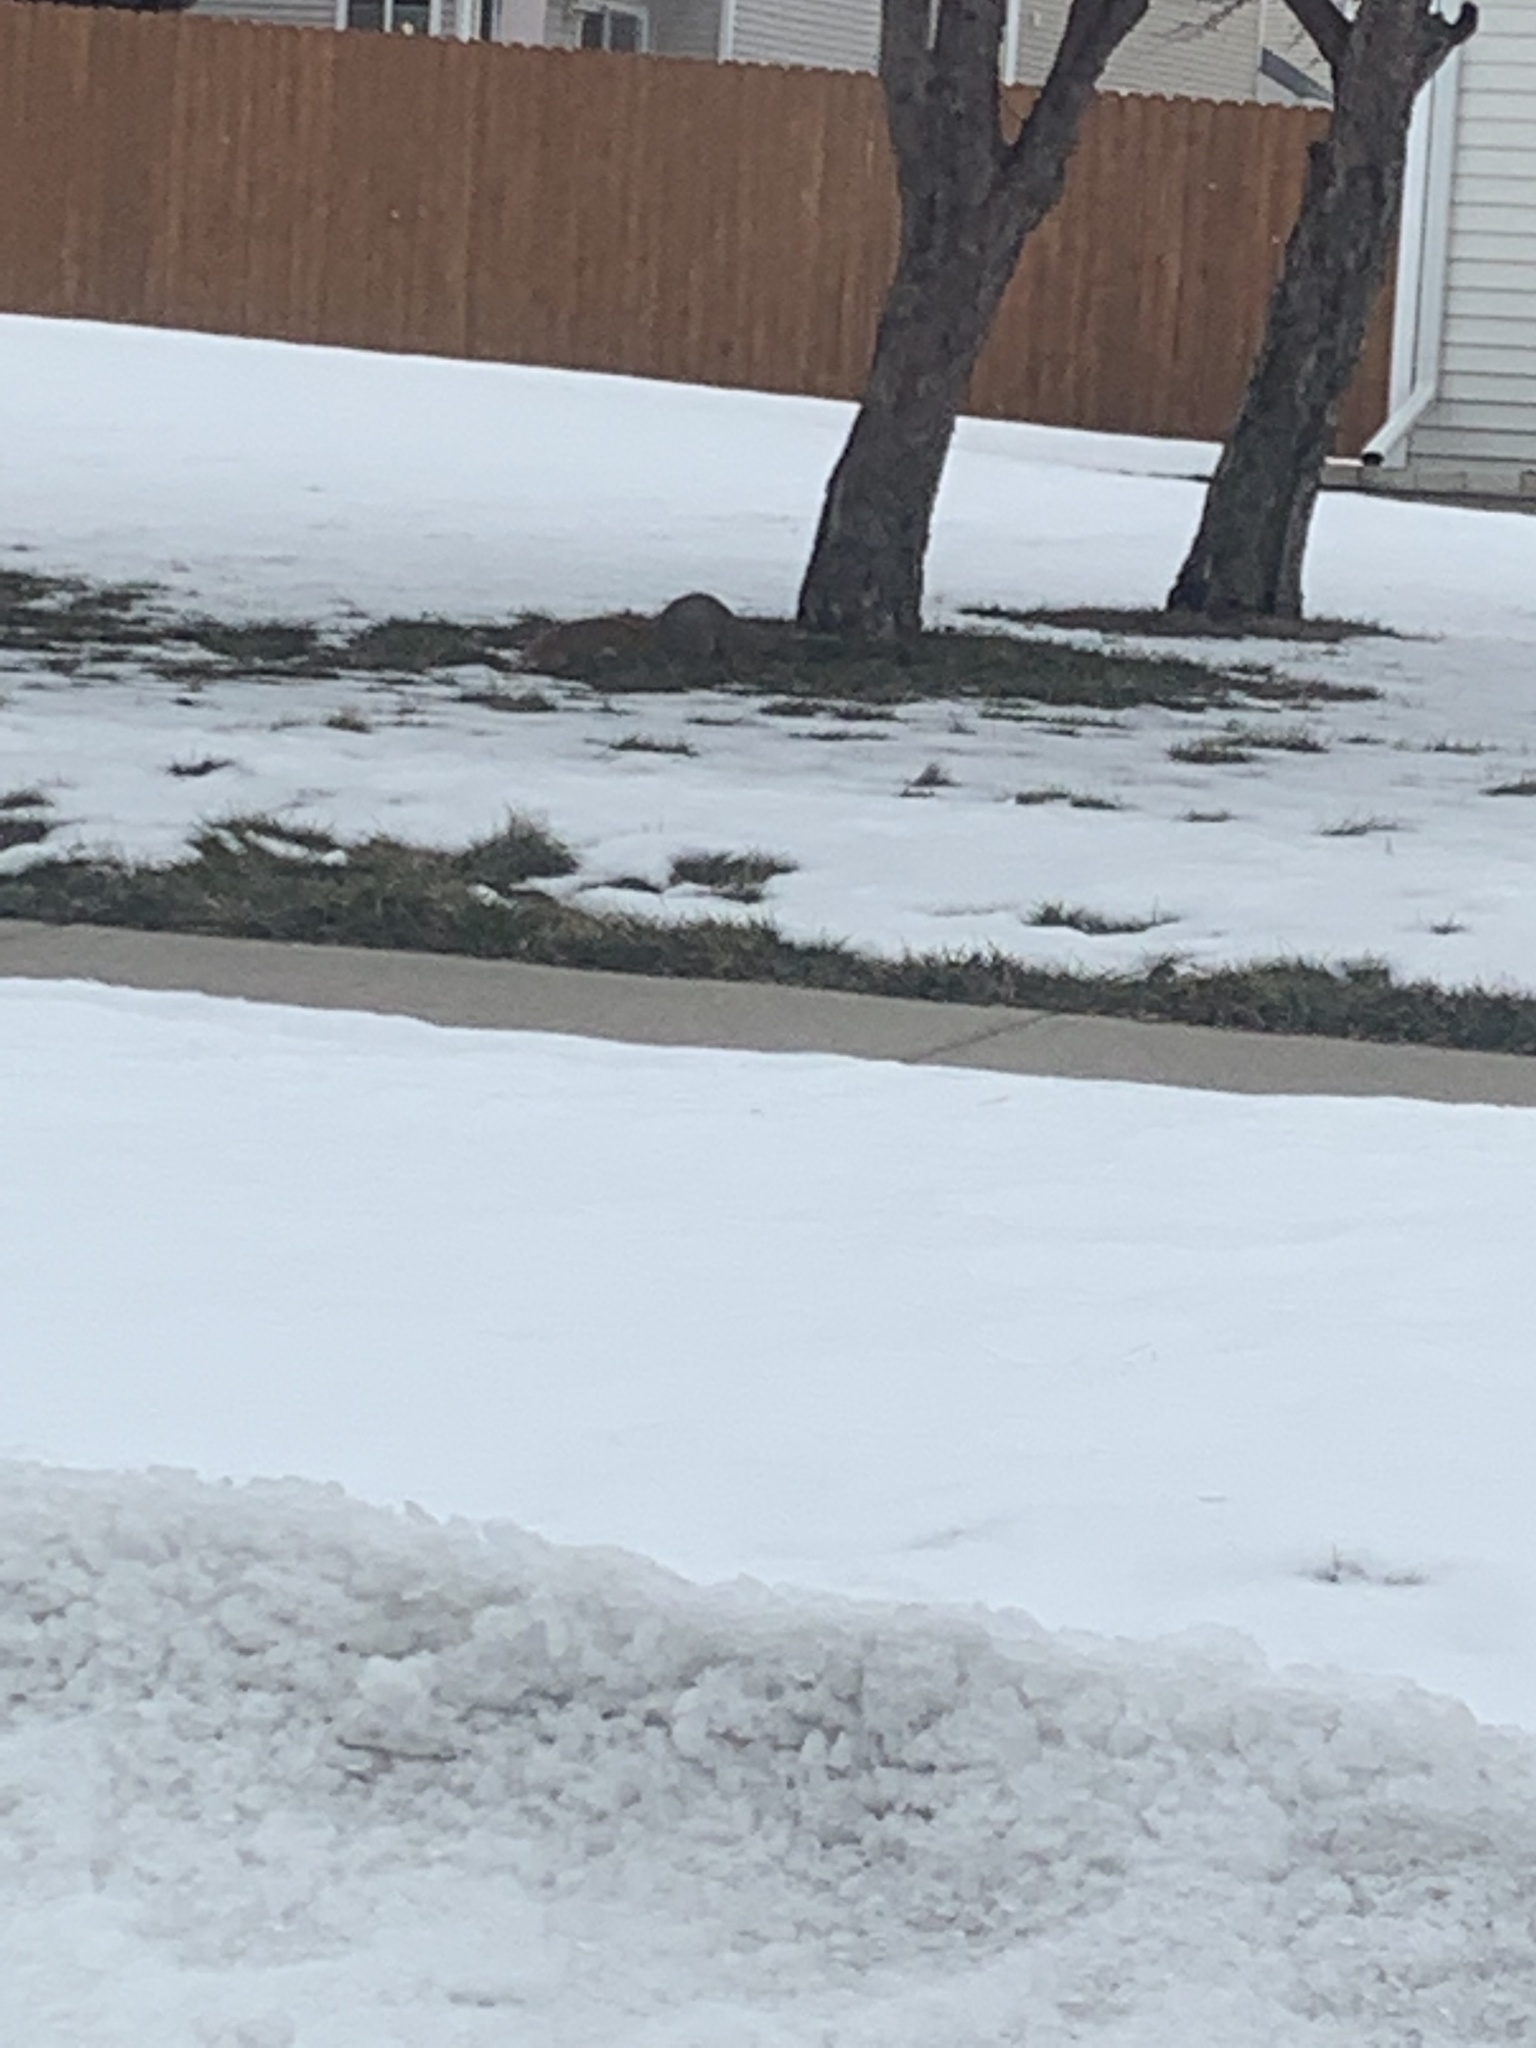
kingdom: Animalia
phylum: Chordata
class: Mammalia
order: Rodentia
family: Sciuridae
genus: Sciurus
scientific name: Sciurus niger
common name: Fox squirrel
